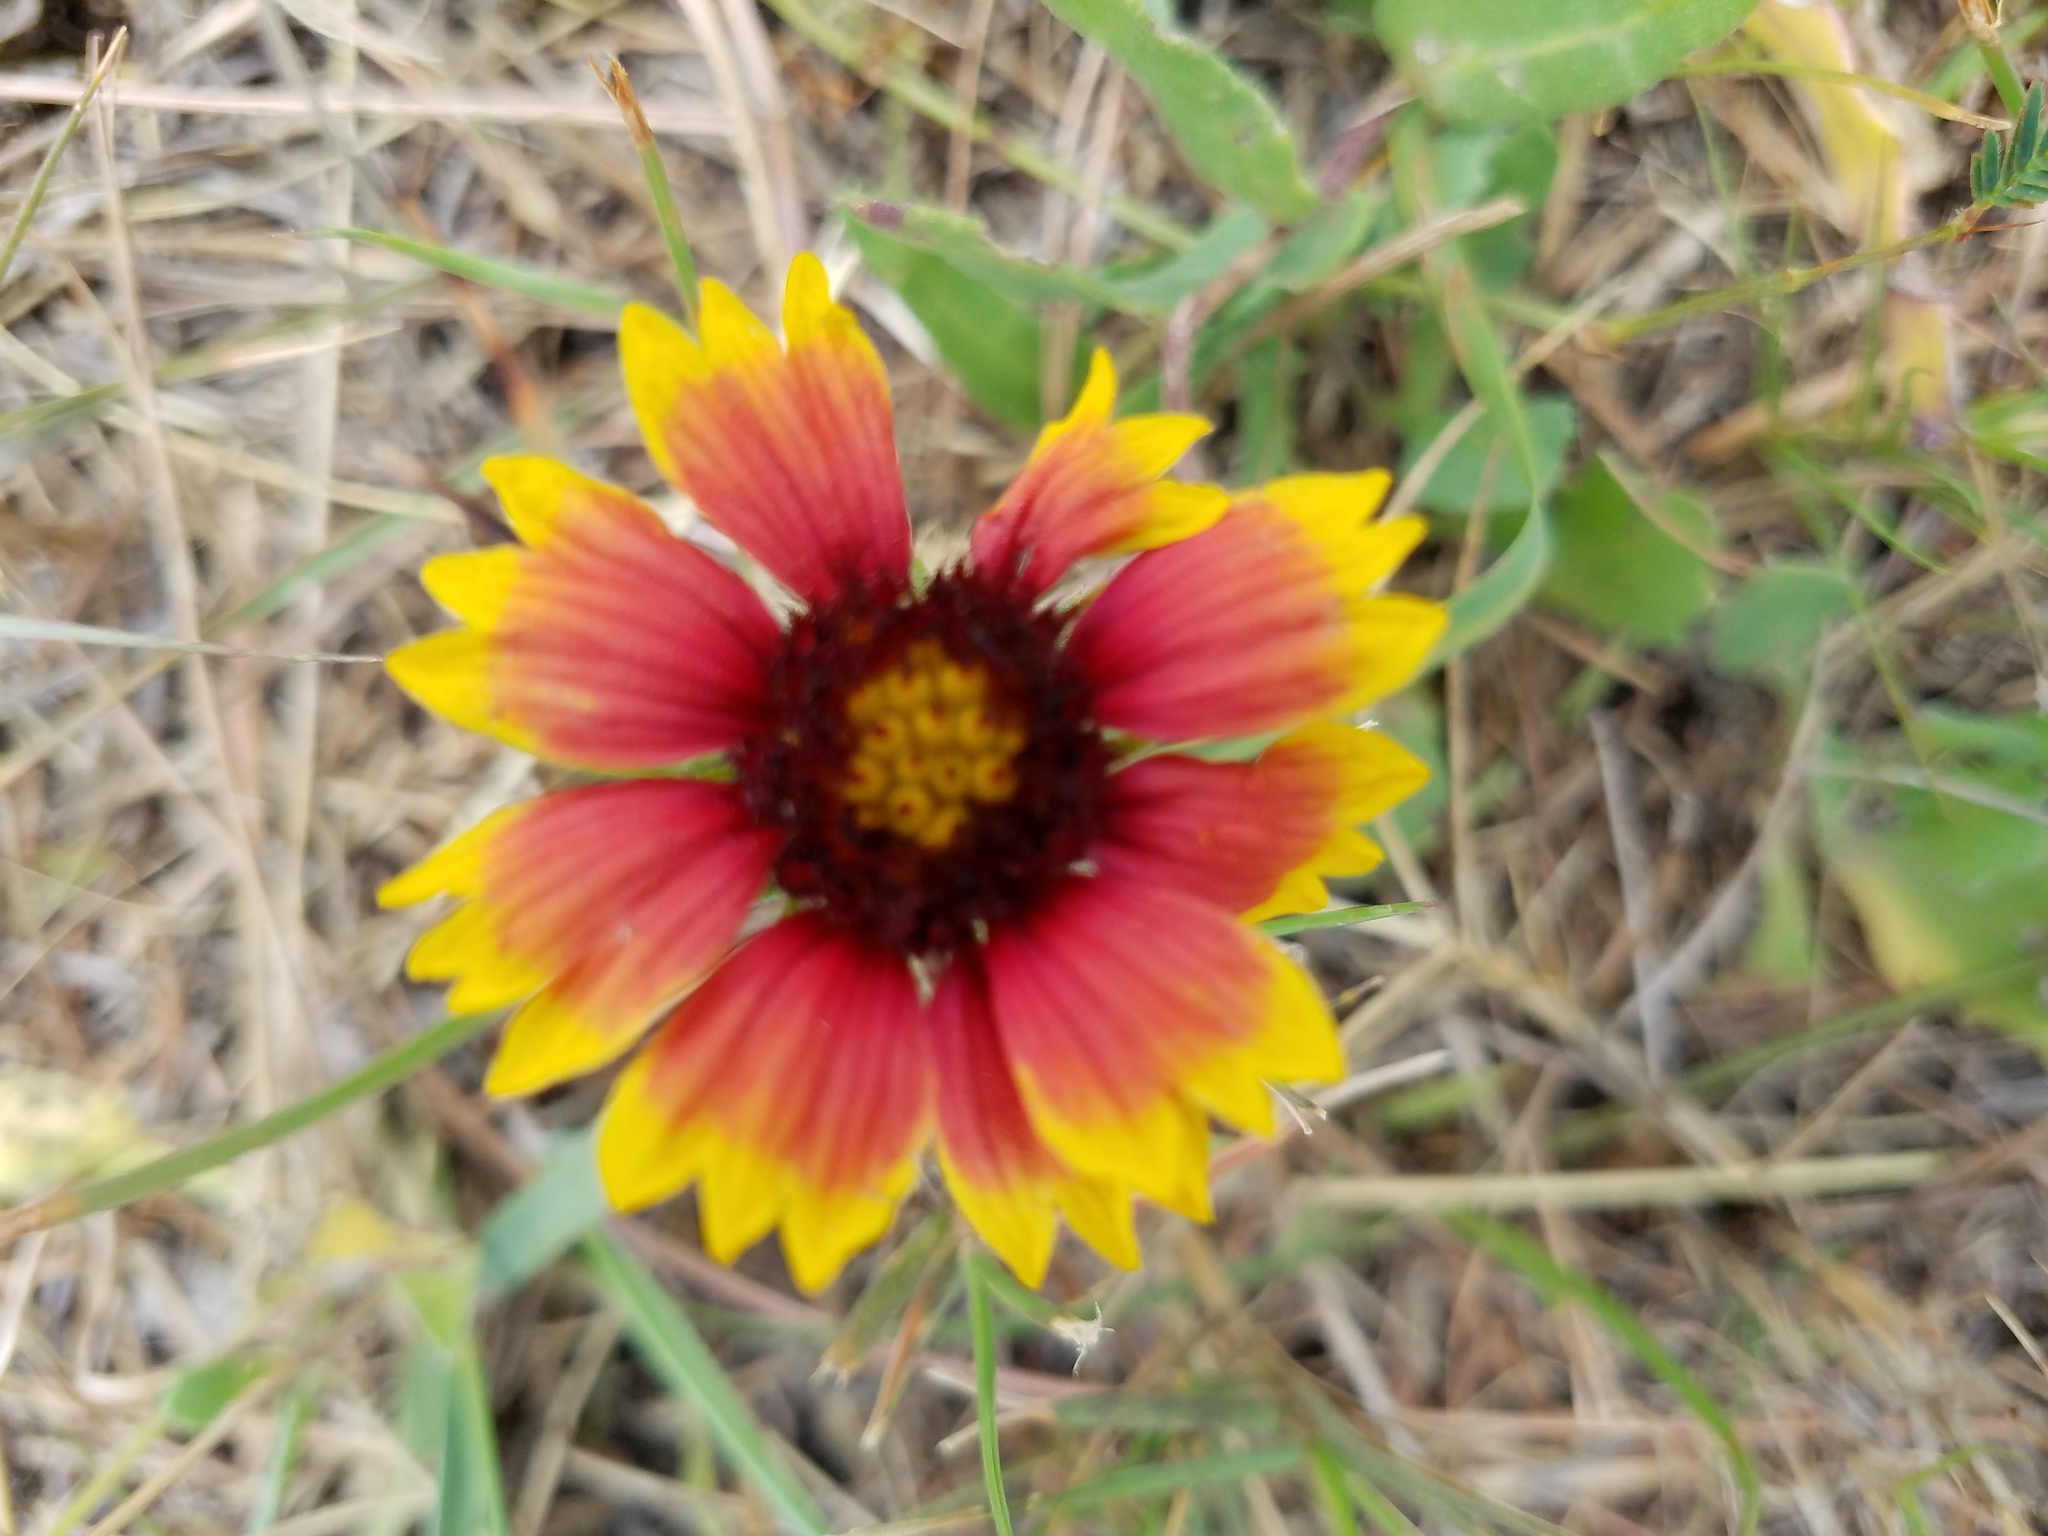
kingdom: Plantae
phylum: Tracheophyta
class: Magnoliopsida
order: Asterales
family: Asteraceae
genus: Gaillardia
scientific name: Gaillardia pulchella
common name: Firewheel
